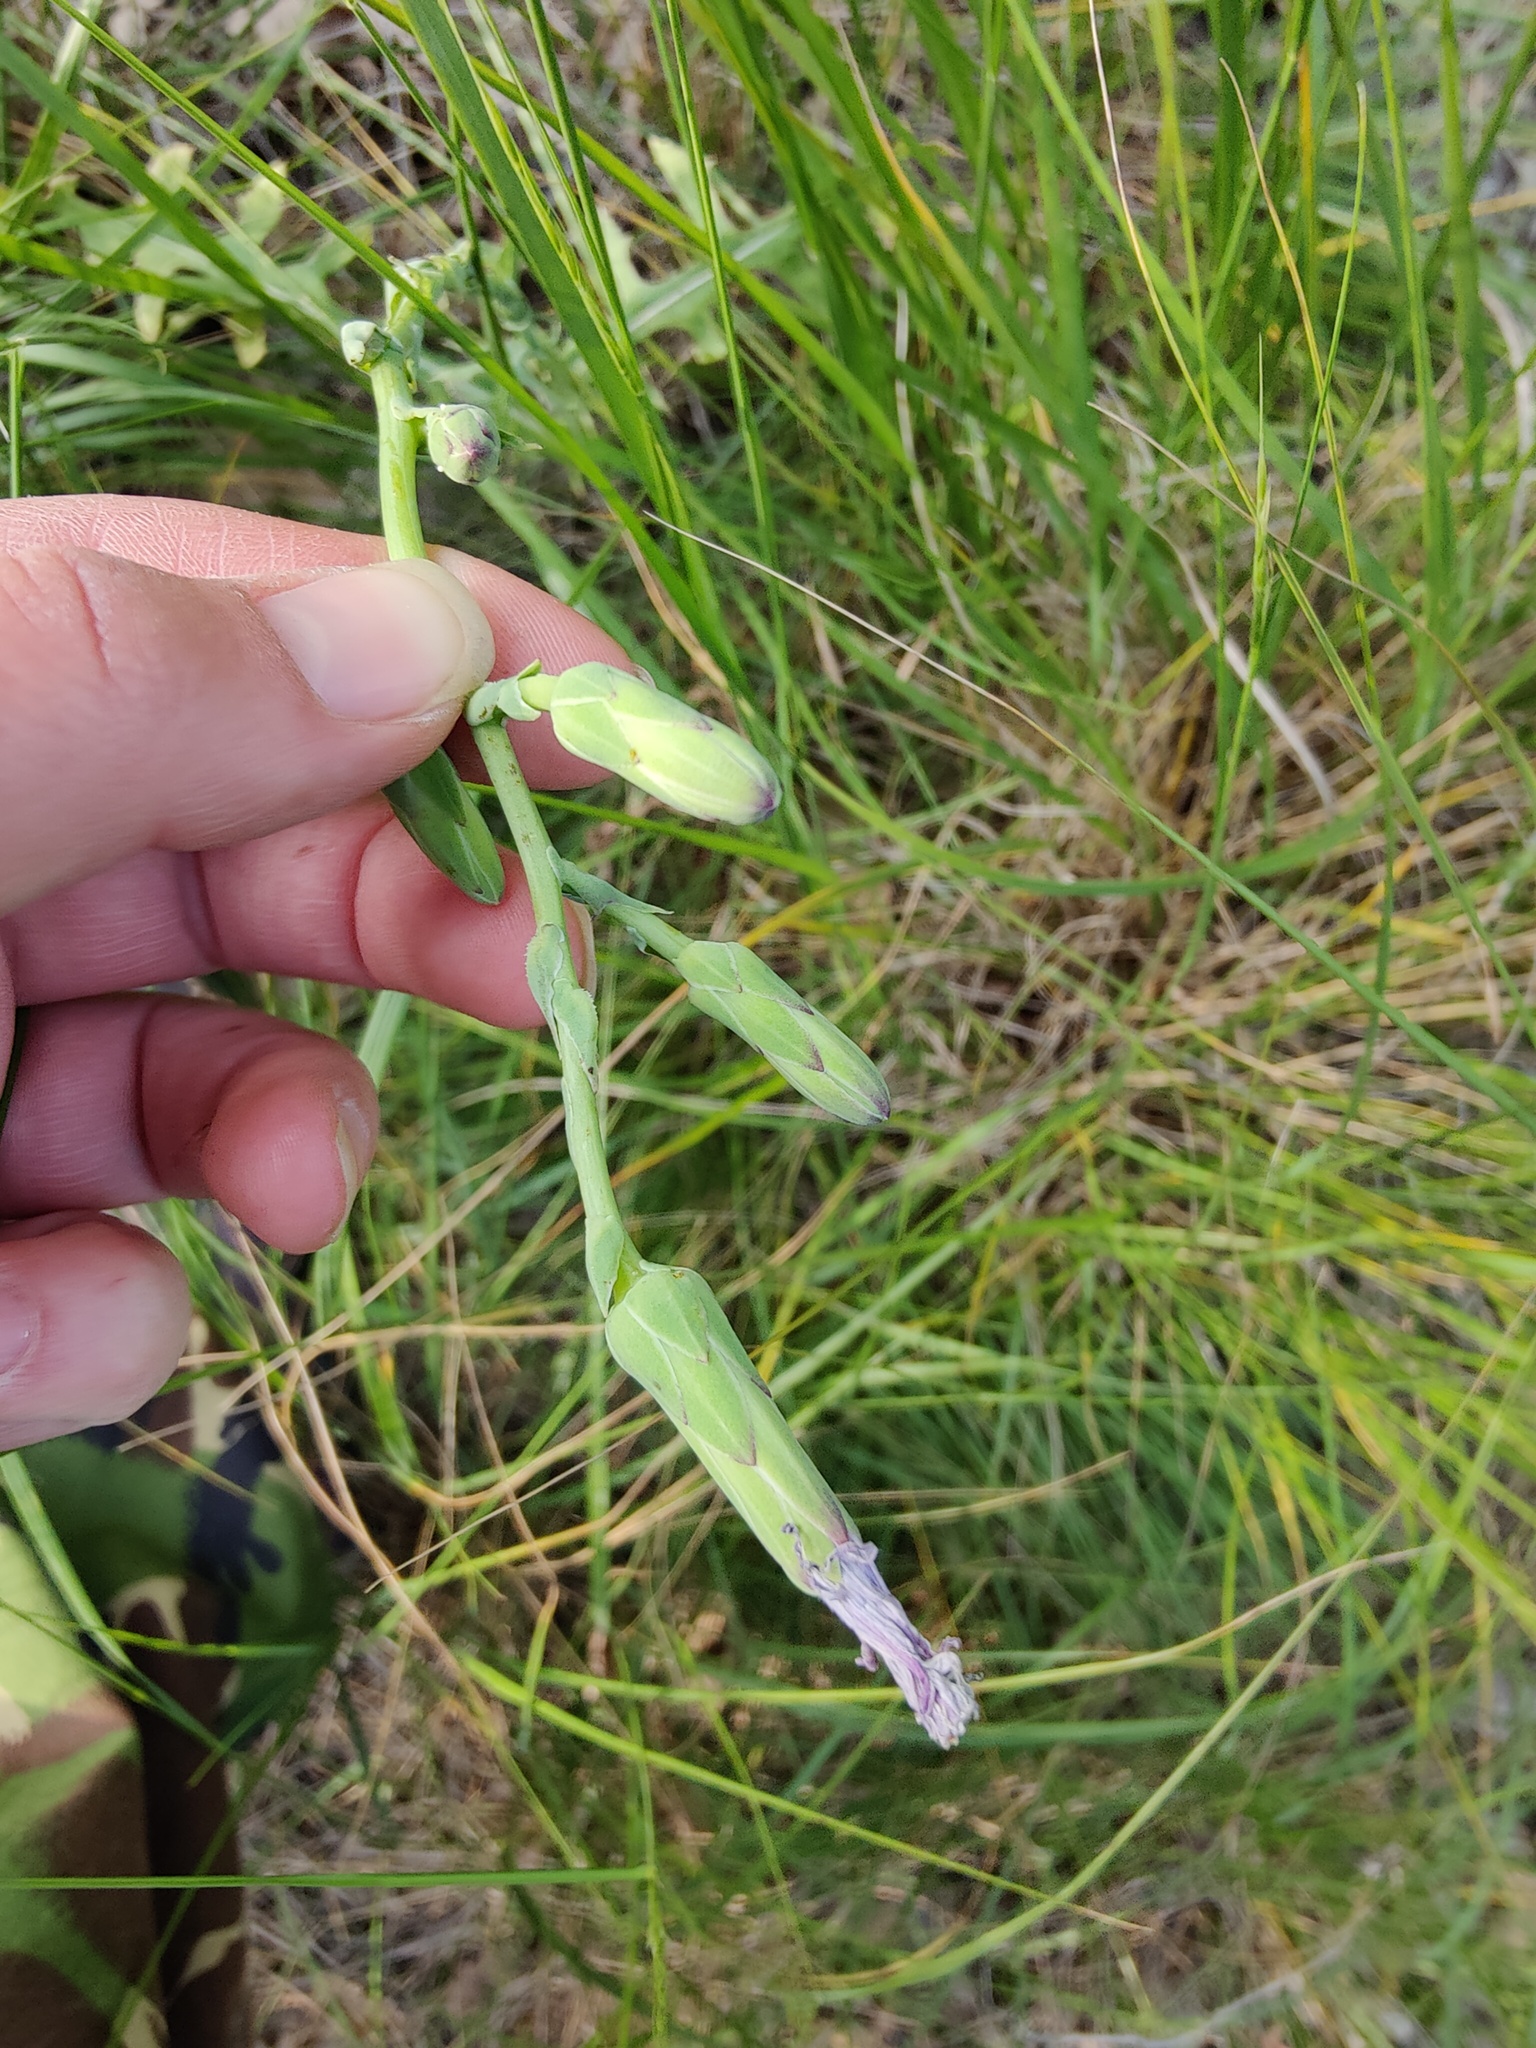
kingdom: Plantae
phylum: Tracheophyta
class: Magnoliopsida
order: Asterales
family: Asteraceae
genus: Lactuca
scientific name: Lactuca tuberosa
